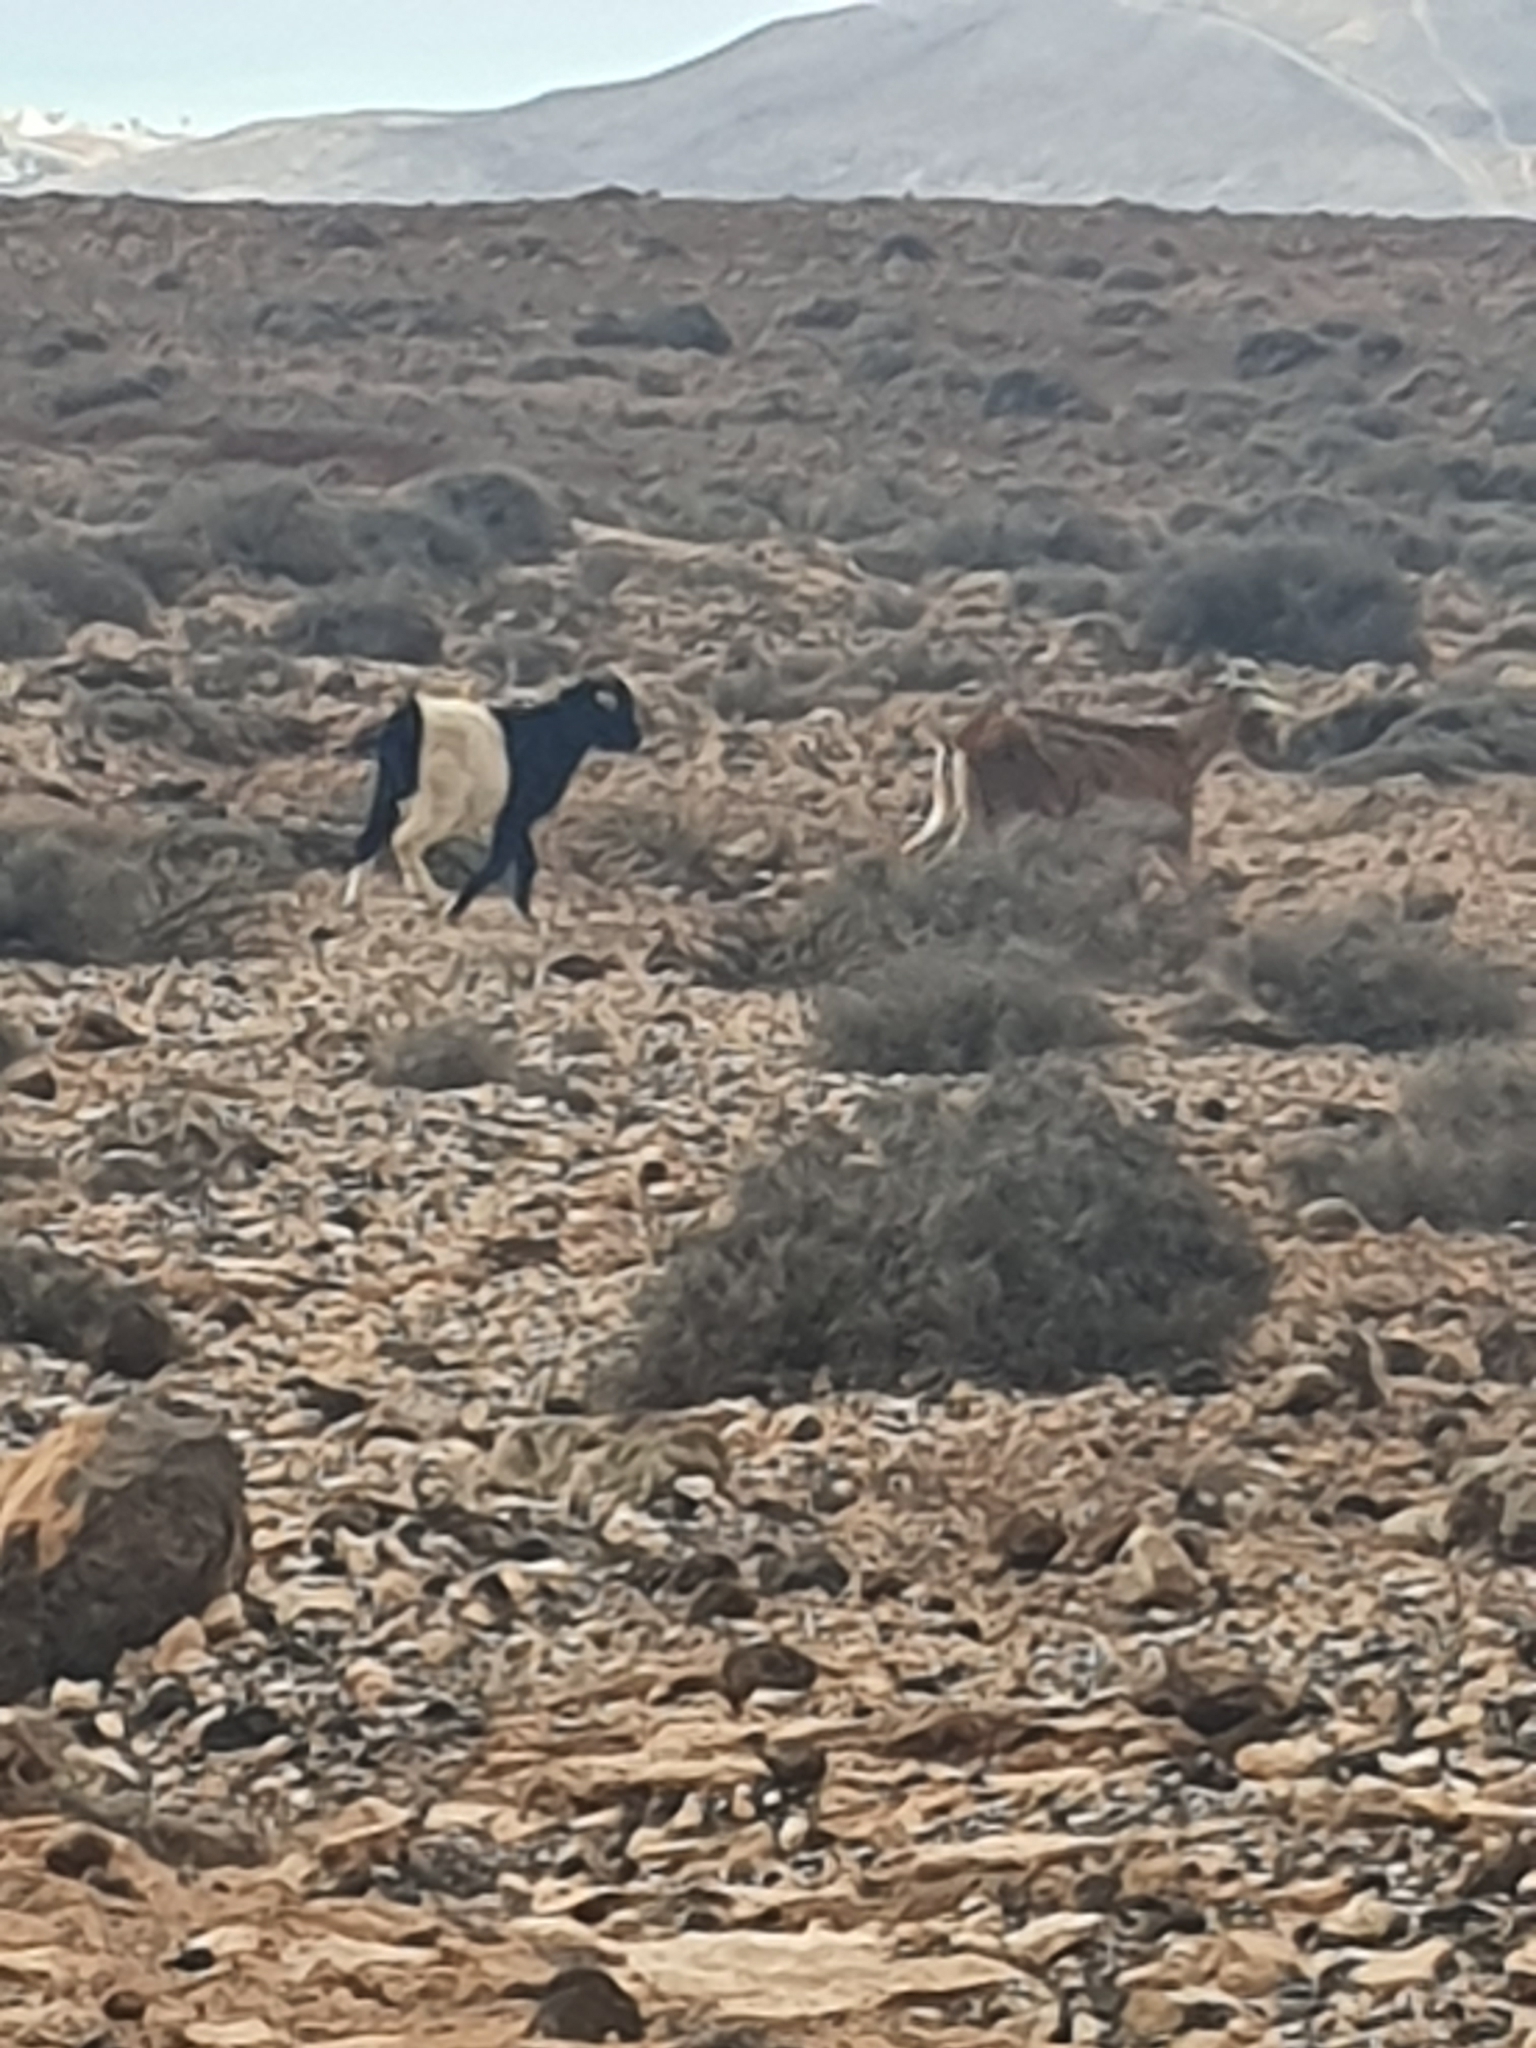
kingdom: Animalia
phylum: Chordata
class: Mammalia
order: Artiodactyla
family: Bovidae
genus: Capra
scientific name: Capra hircus
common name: Domestic goat
